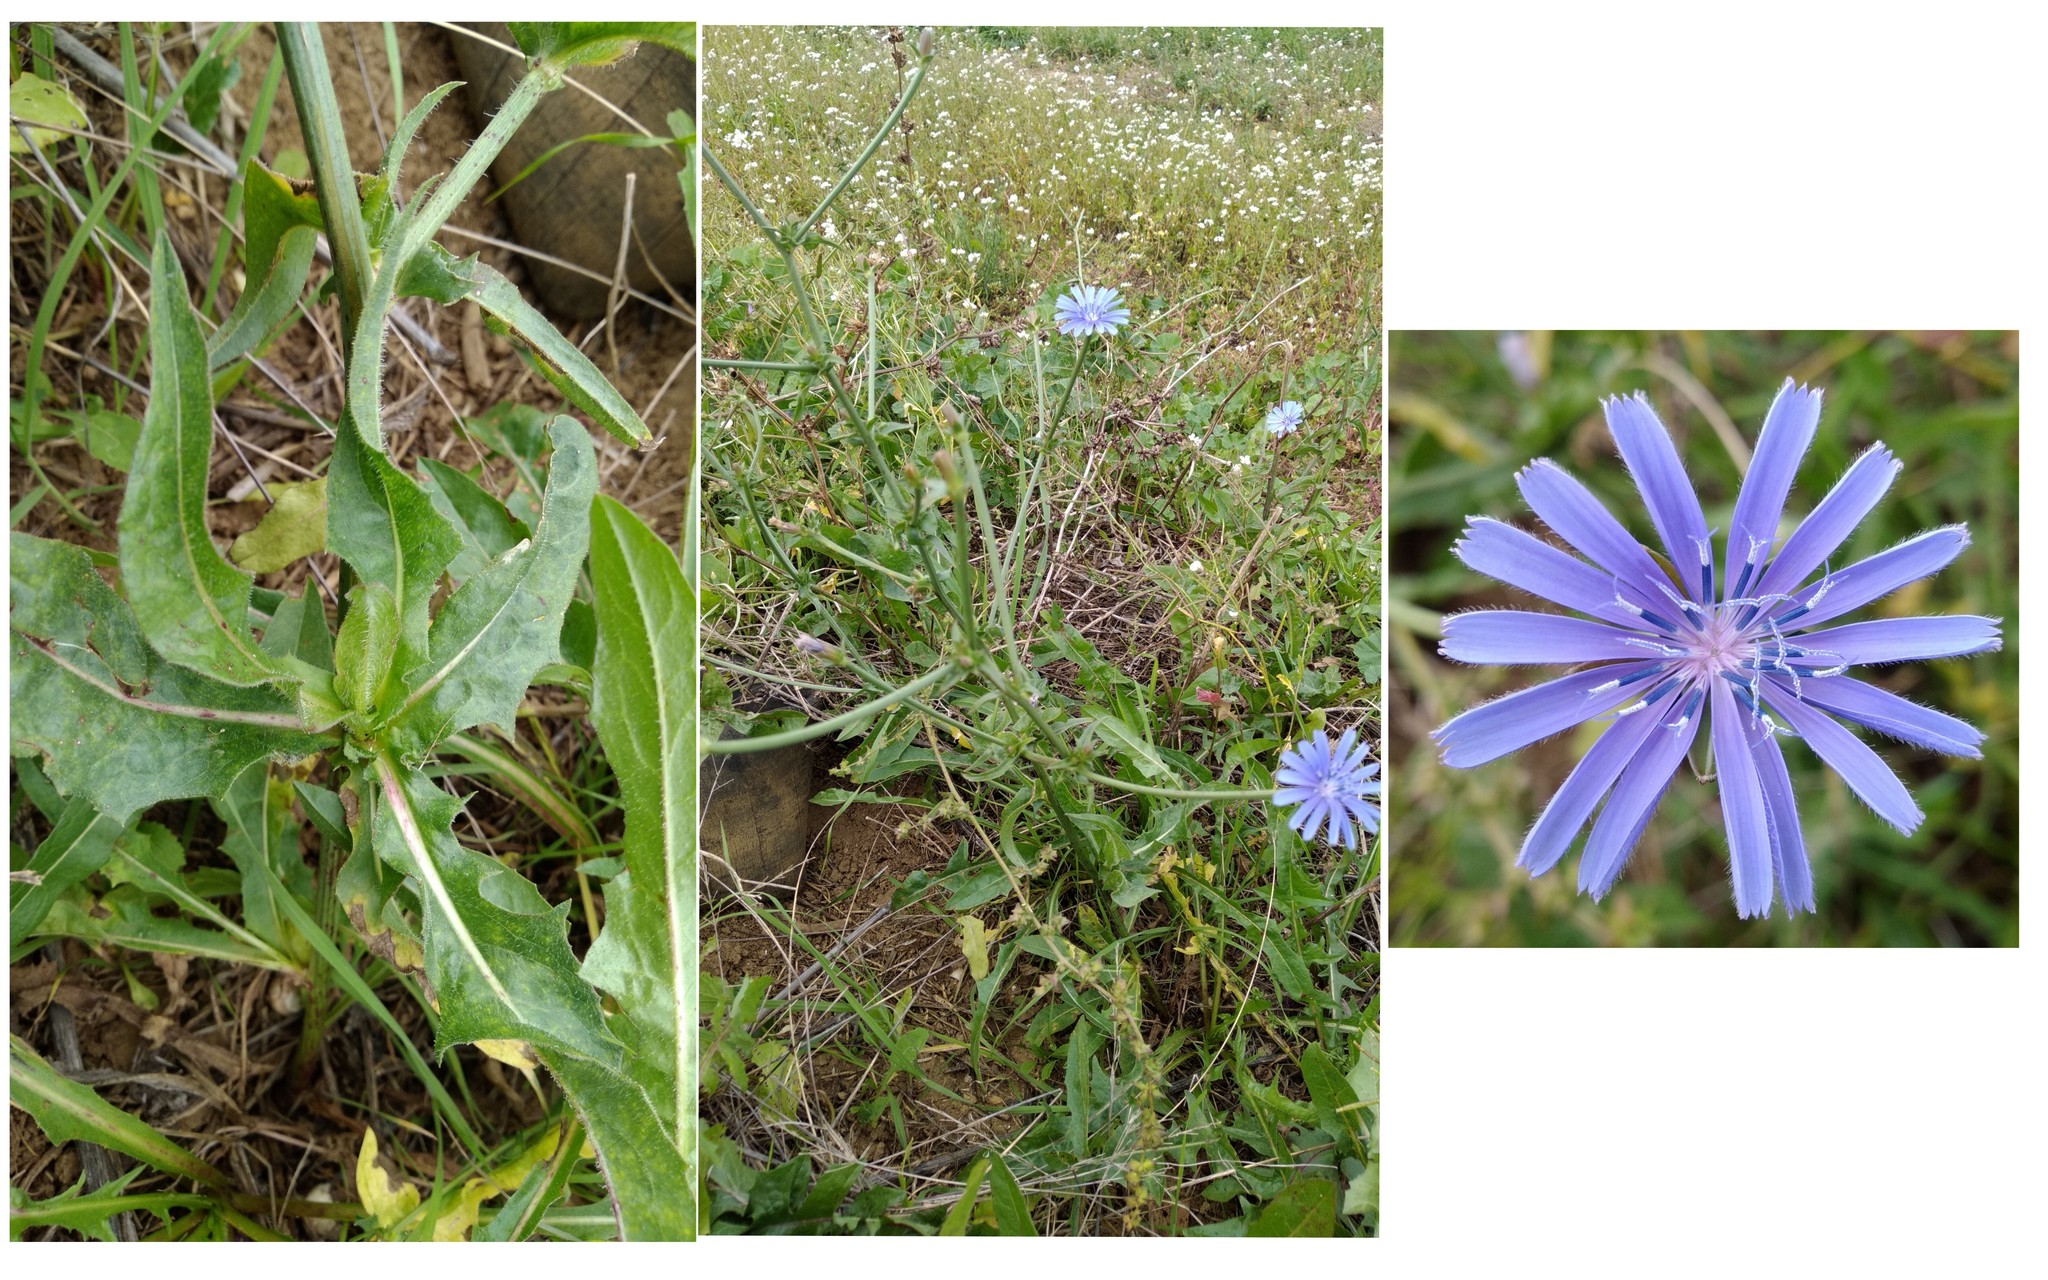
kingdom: Plantae
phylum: Tracheophyta
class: Magnoliopsida
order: Asterales
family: Asteraceae
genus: Cichorium
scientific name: Cichorium intybus
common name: Chicory
